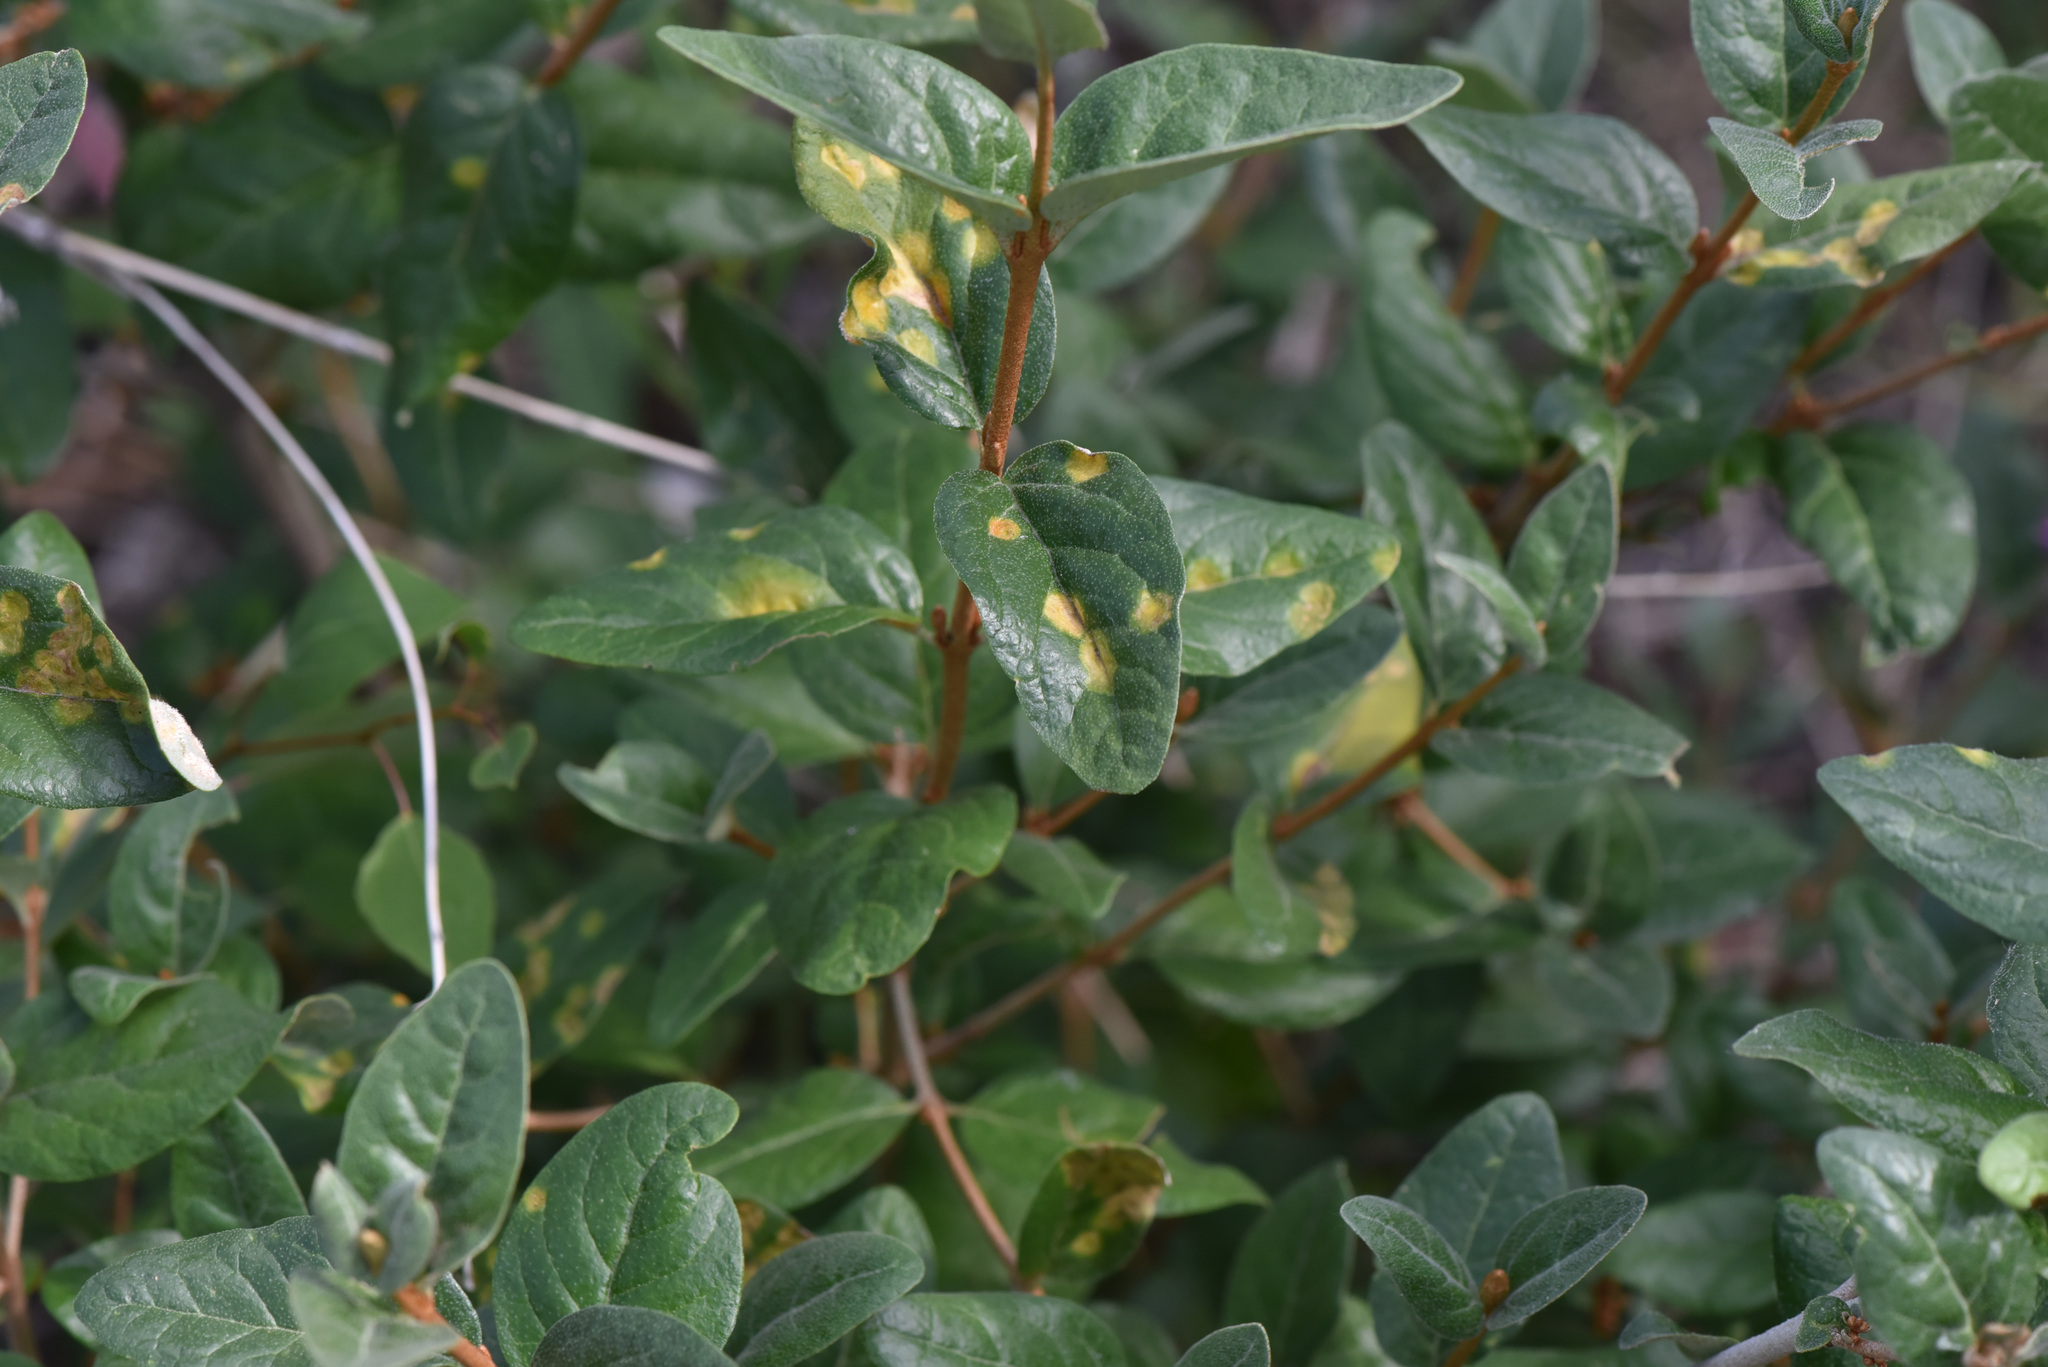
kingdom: Plantae
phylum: Tracheophyta
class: Magnoliopsida
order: Rosales
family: Elaeagnaceae
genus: Shepherdia
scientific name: Shepherdia canadensis
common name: Soapberry
